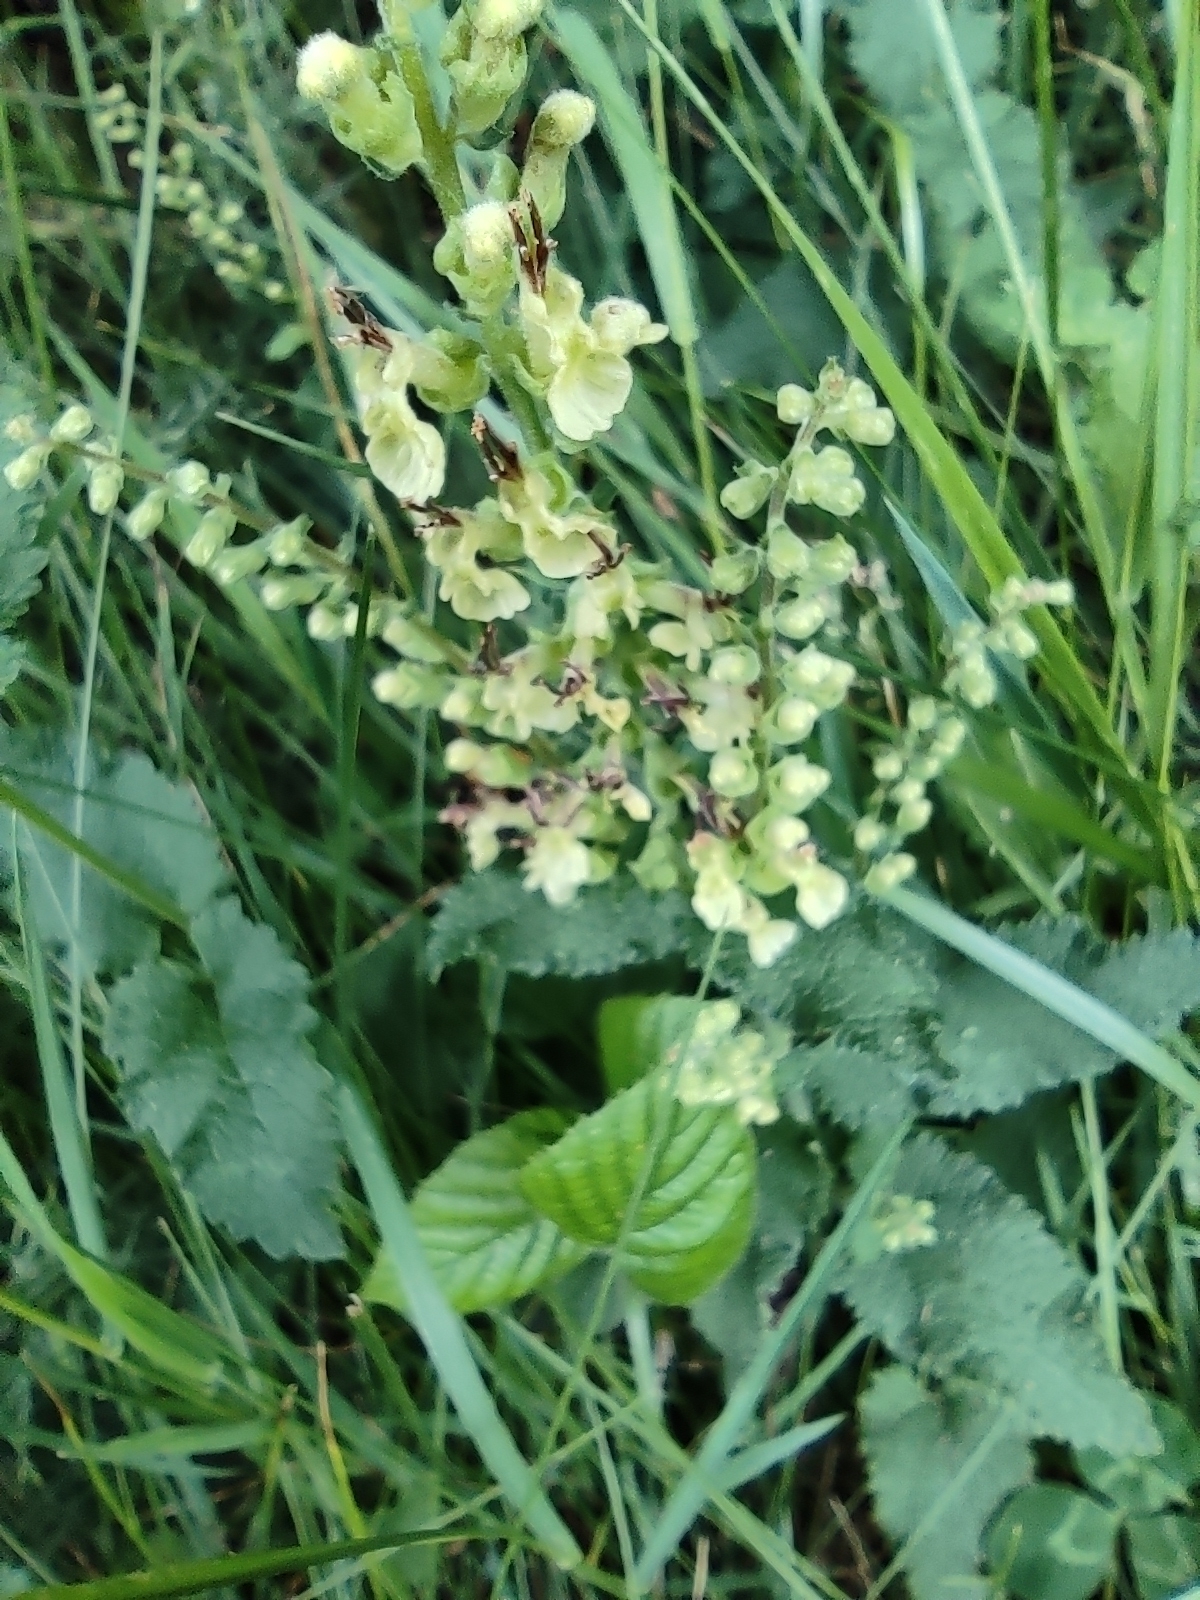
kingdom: Plantae
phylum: Tracheophyta
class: Magnoliopsida
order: Lamiales
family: Lamiaceae
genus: Teucrium
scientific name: Teucrium scorodonia
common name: Woodland germander
